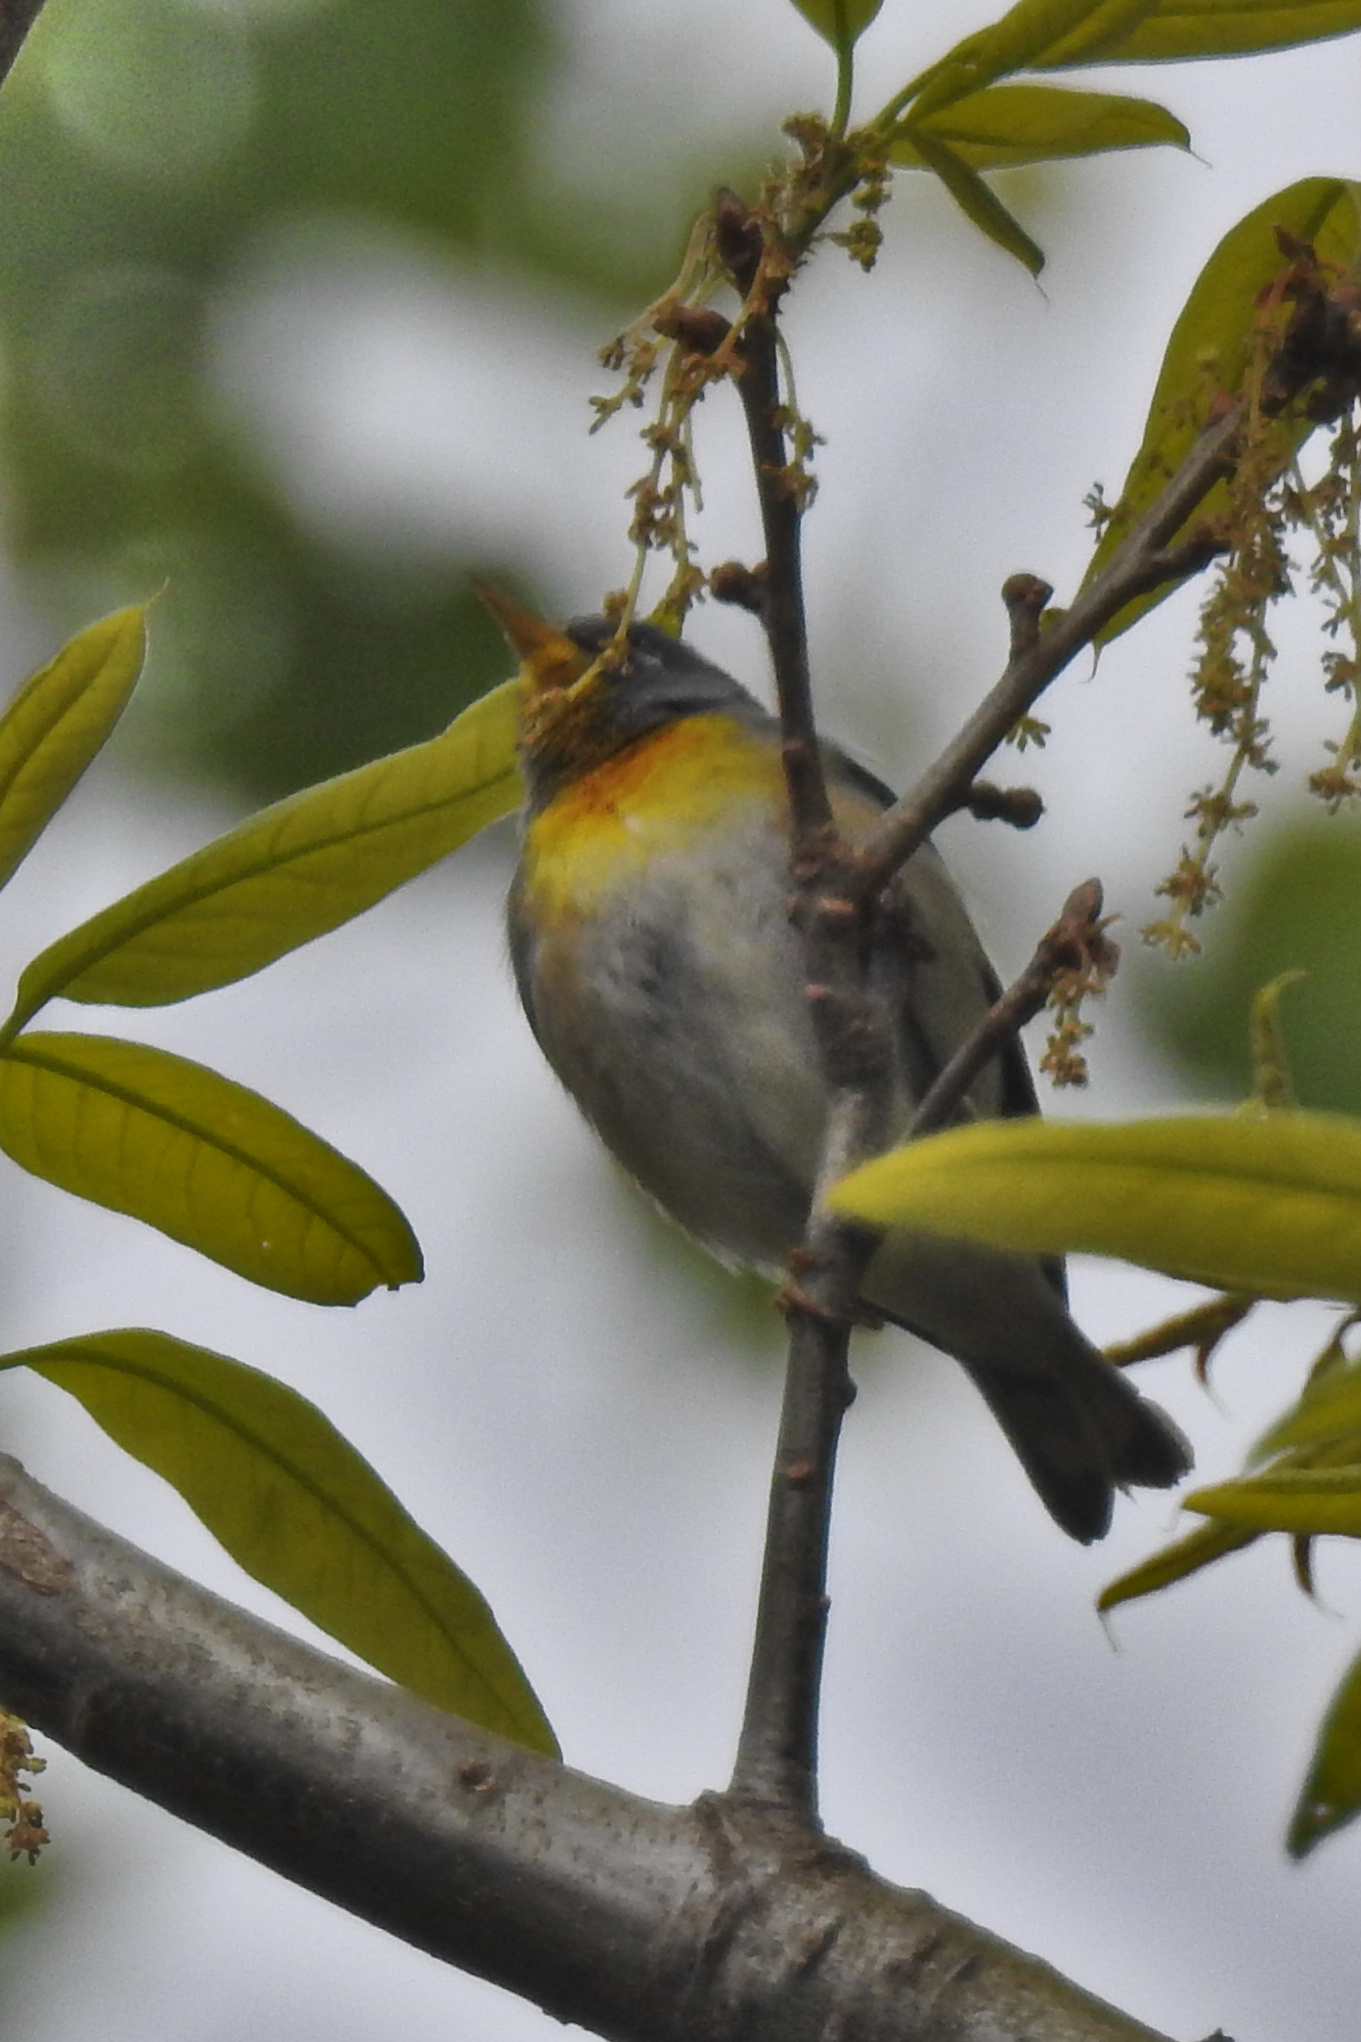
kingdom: Animalia
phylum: Chordata
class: Aves
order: Passeriformes
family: Parulidae
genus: Setophaga
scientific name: Setophaga americana
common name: Northern parula
